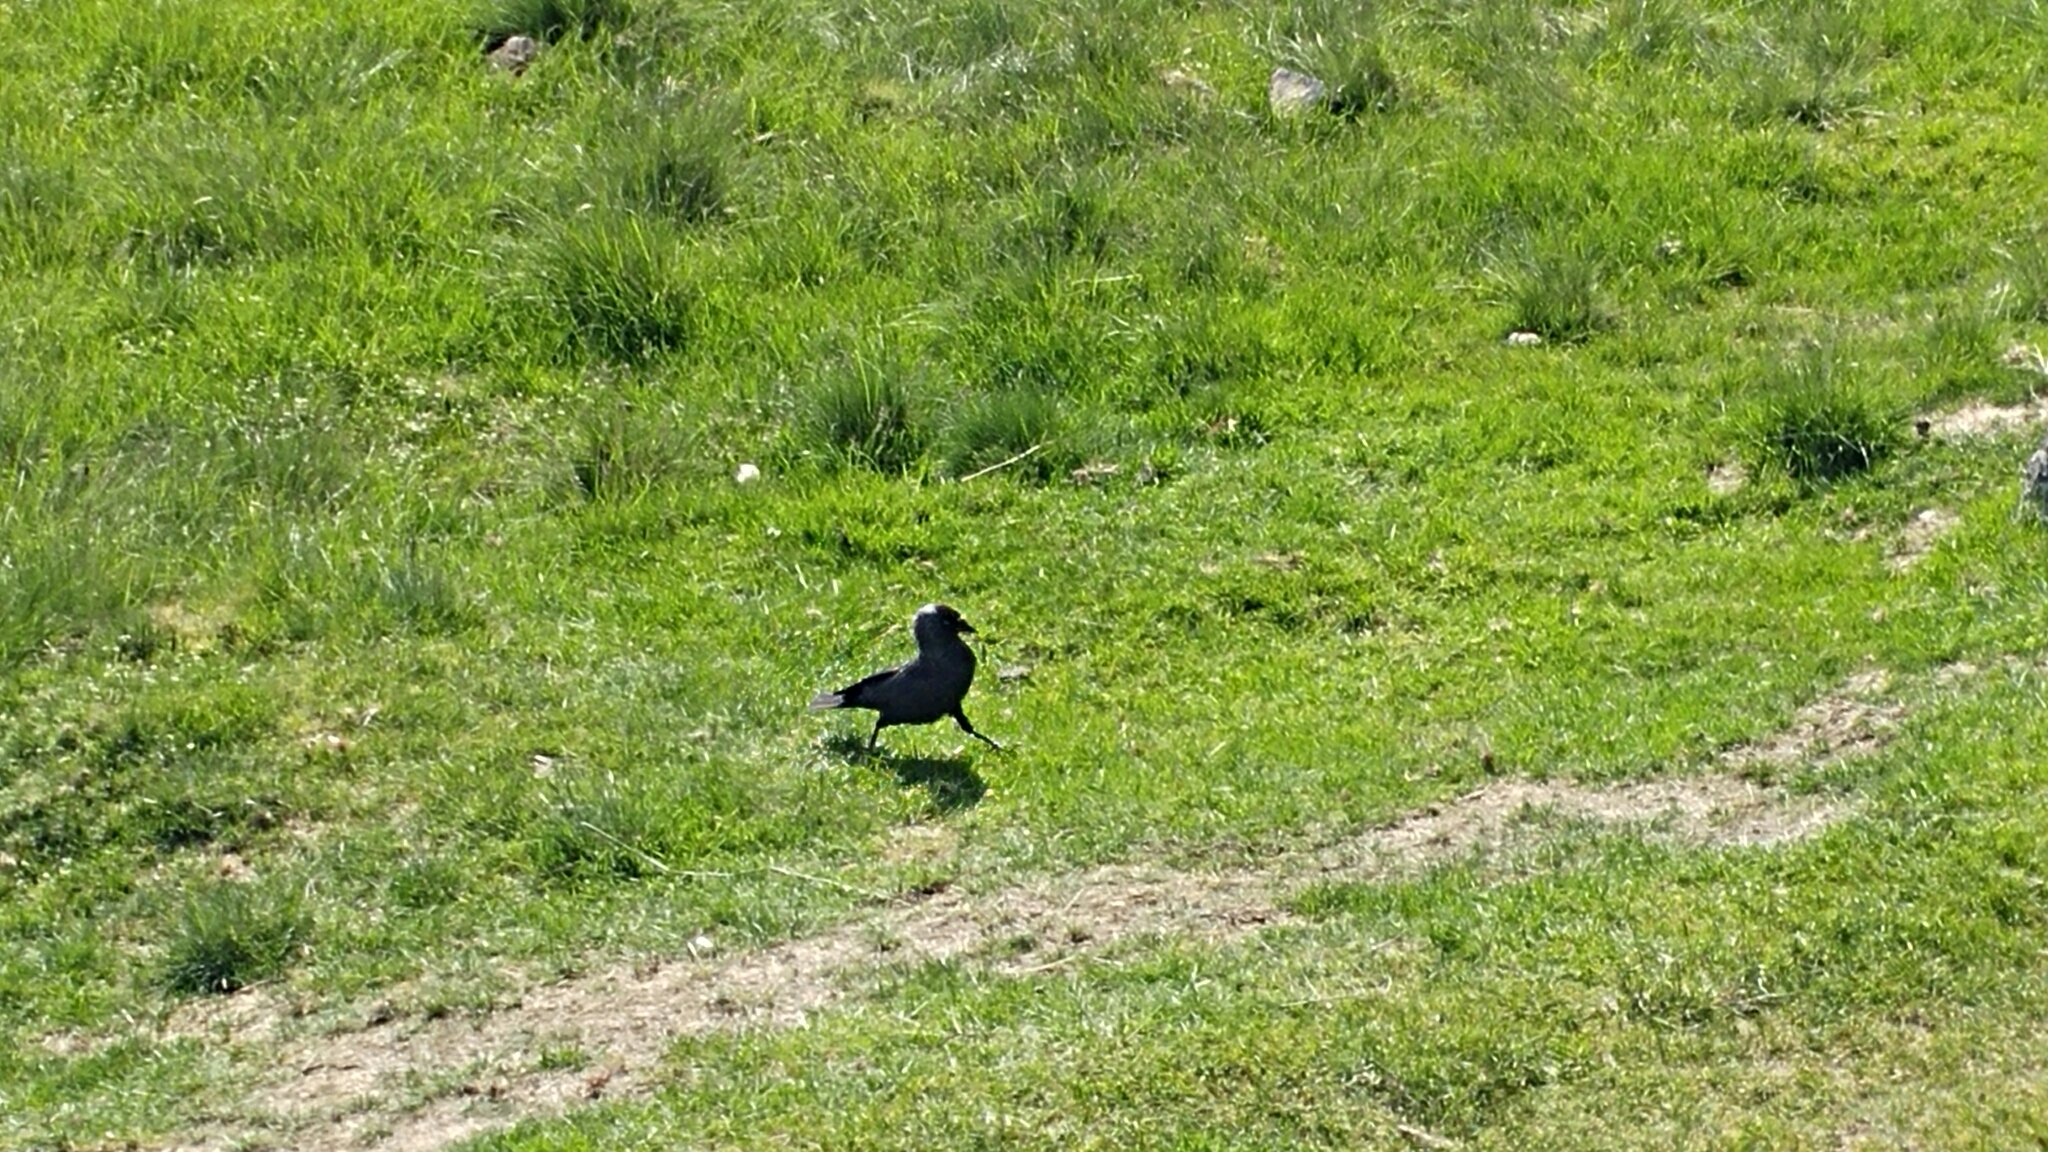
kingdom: Animalia
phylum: Chordata
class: Aves
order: Passeriformes
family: Corvidae
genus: Coloeus
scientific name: Coloeus monedula
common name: Western jackdaw
